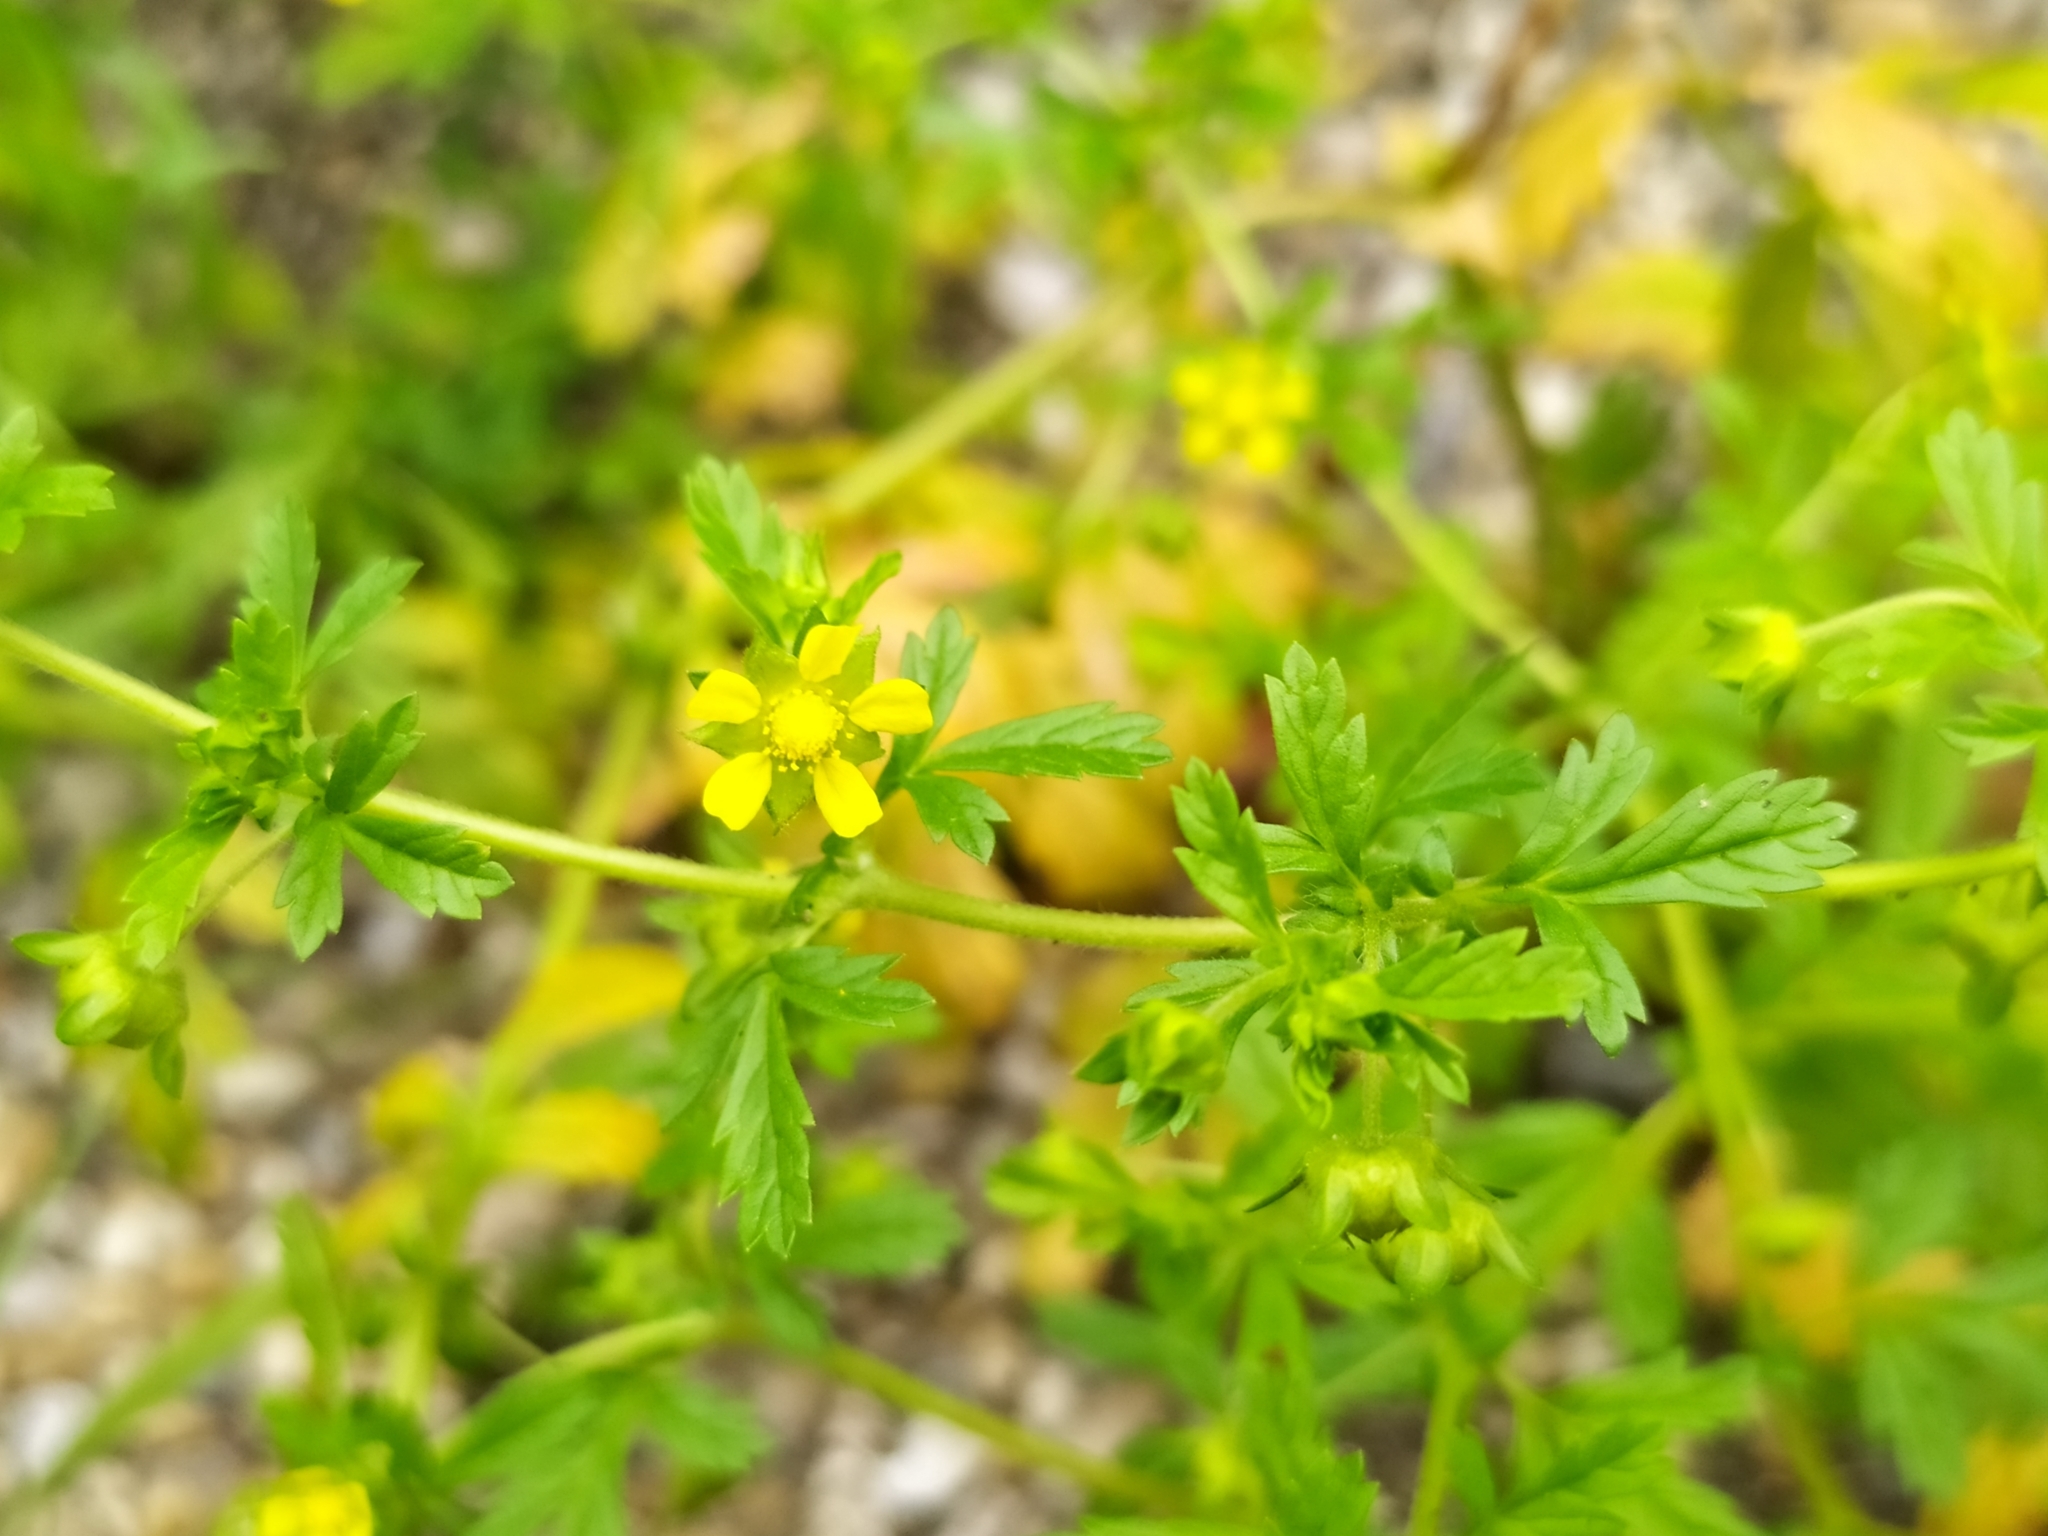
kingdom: Plantae
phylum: Tracheophyta
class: Magnoliopsida
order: Rosales
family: Rosaceae
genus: Potentilla
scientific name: Potentilla supina
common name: Prostrate cinquefoil
